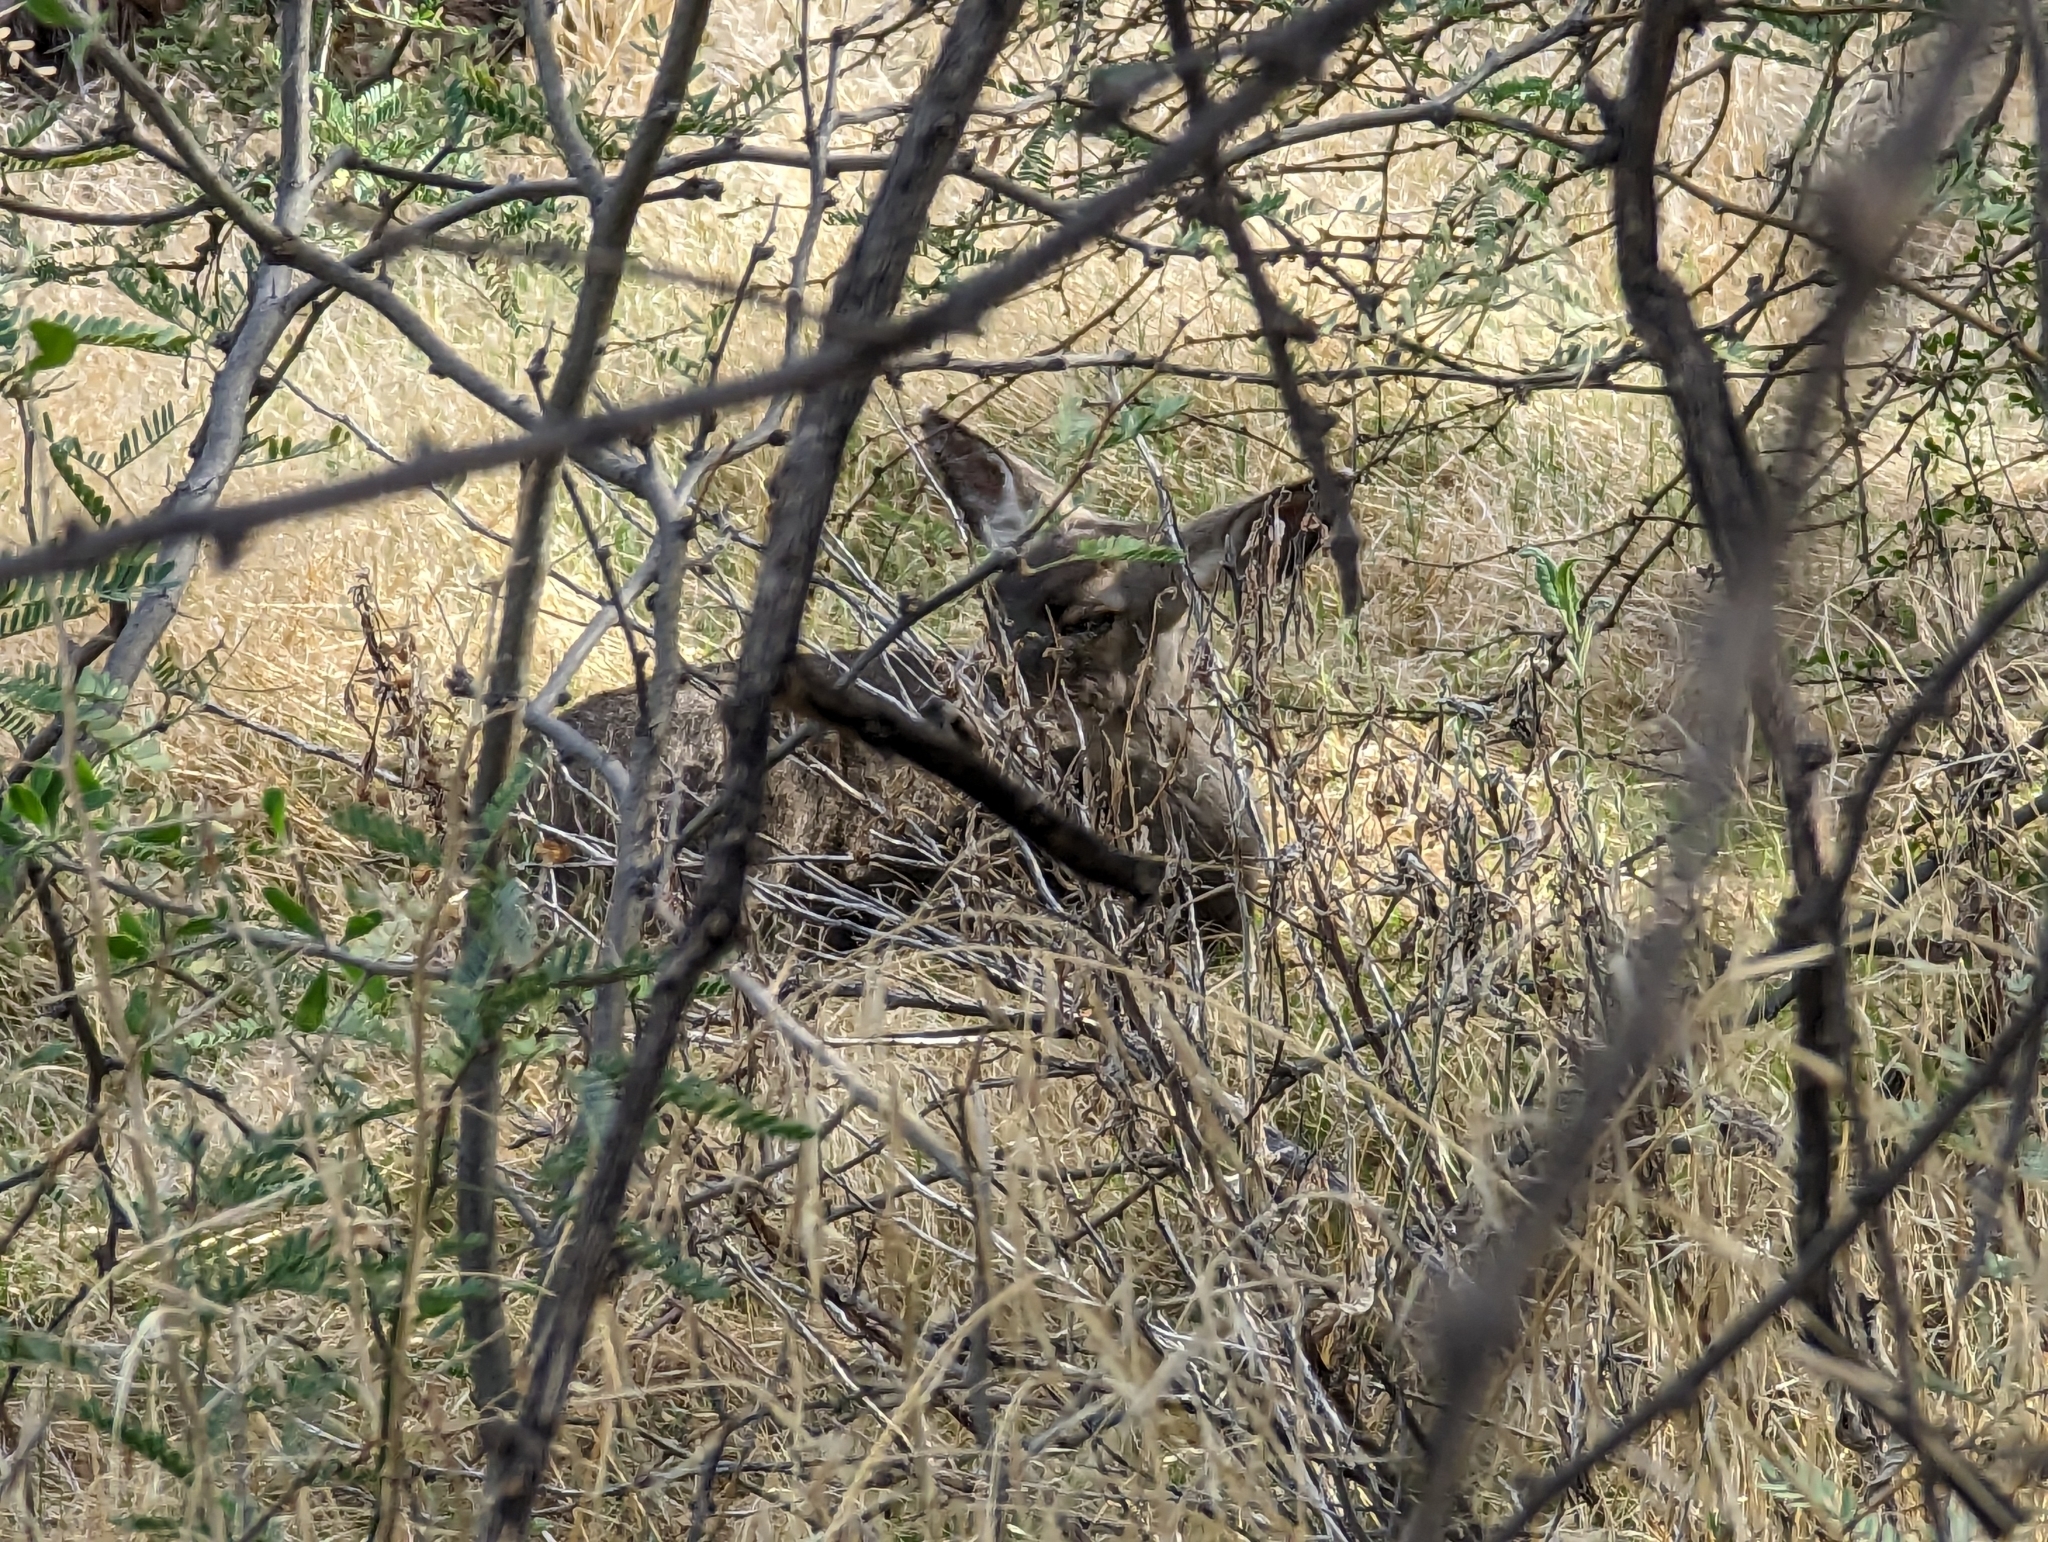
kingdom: Animalia
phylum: Chordata
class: Mammalia
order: Artiodactyla
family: Cervidae
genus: Odocoileus
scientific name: Odocoileus hemionus
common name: Mule deer
